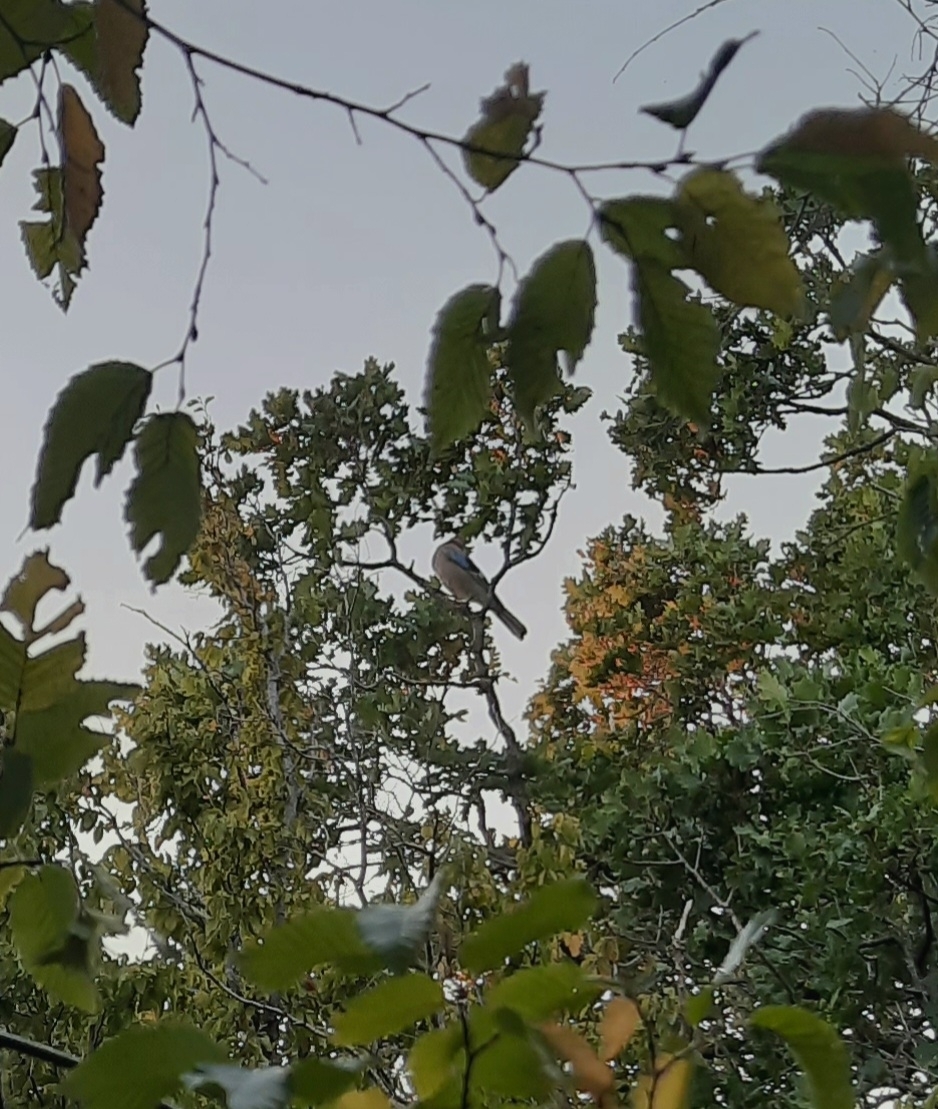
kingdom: Animalia
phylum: Chordata
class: Aves
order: Passeriformes
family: Corvidae
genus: Garrulus
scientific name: Garrulus glandarius
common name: Eurasian jay
